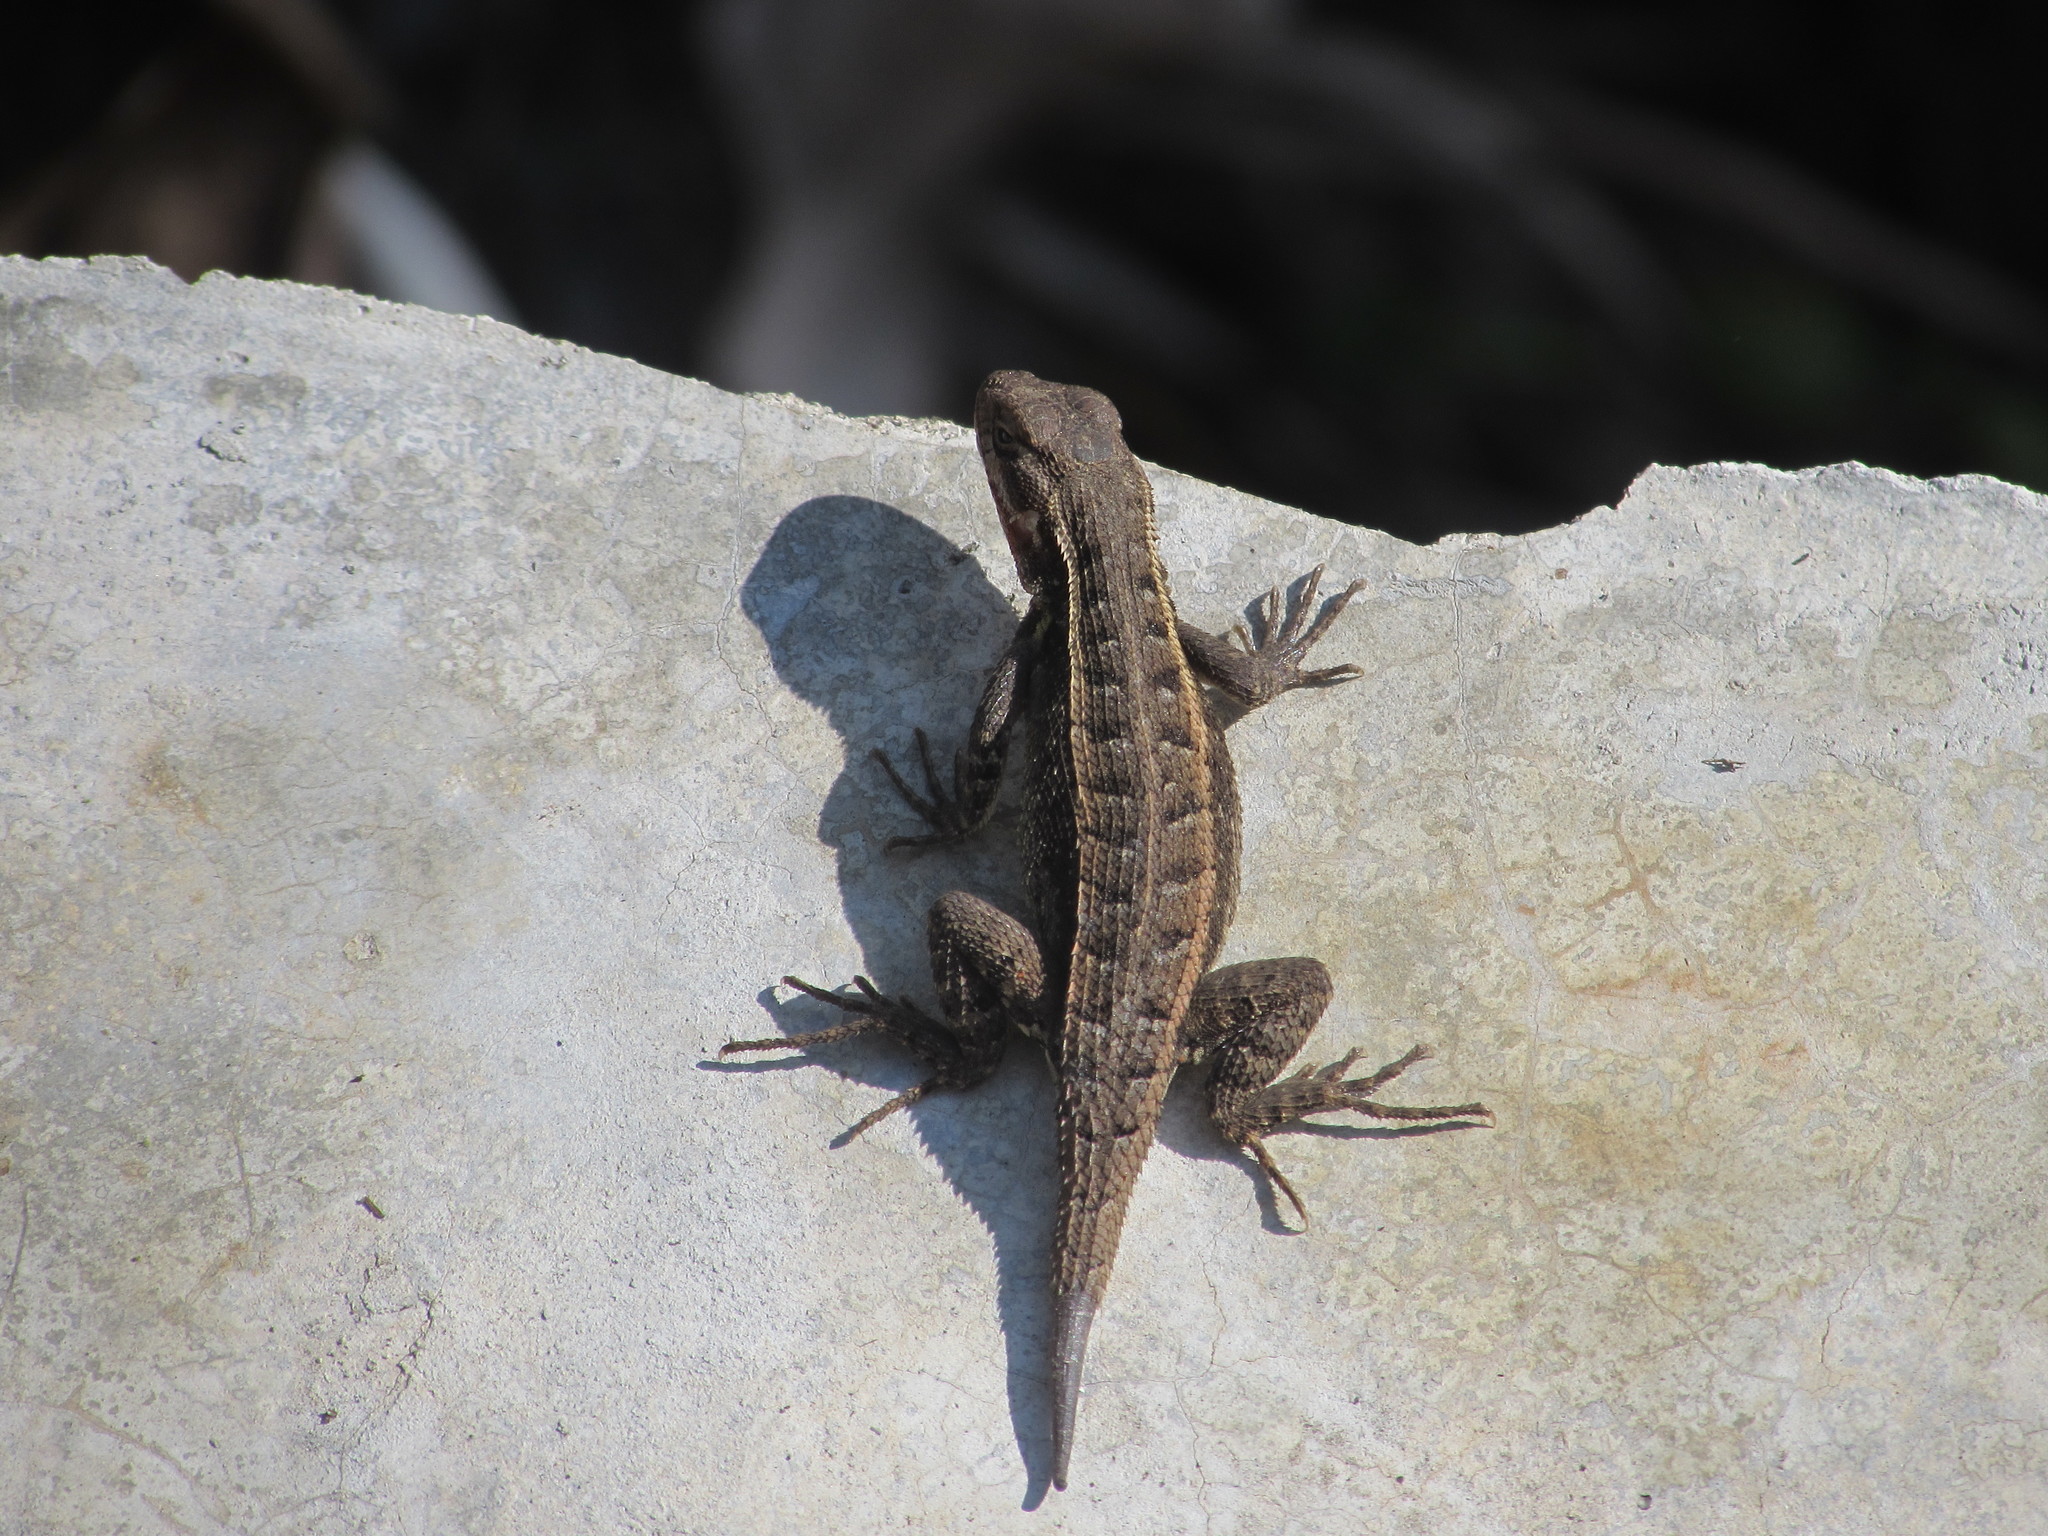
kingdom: Animalia
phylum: Chordata
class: Squamata
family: Phrynosomatidae
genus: Sceloporus
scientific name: Sceloporus variabilis
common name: Rosebelly lizard
